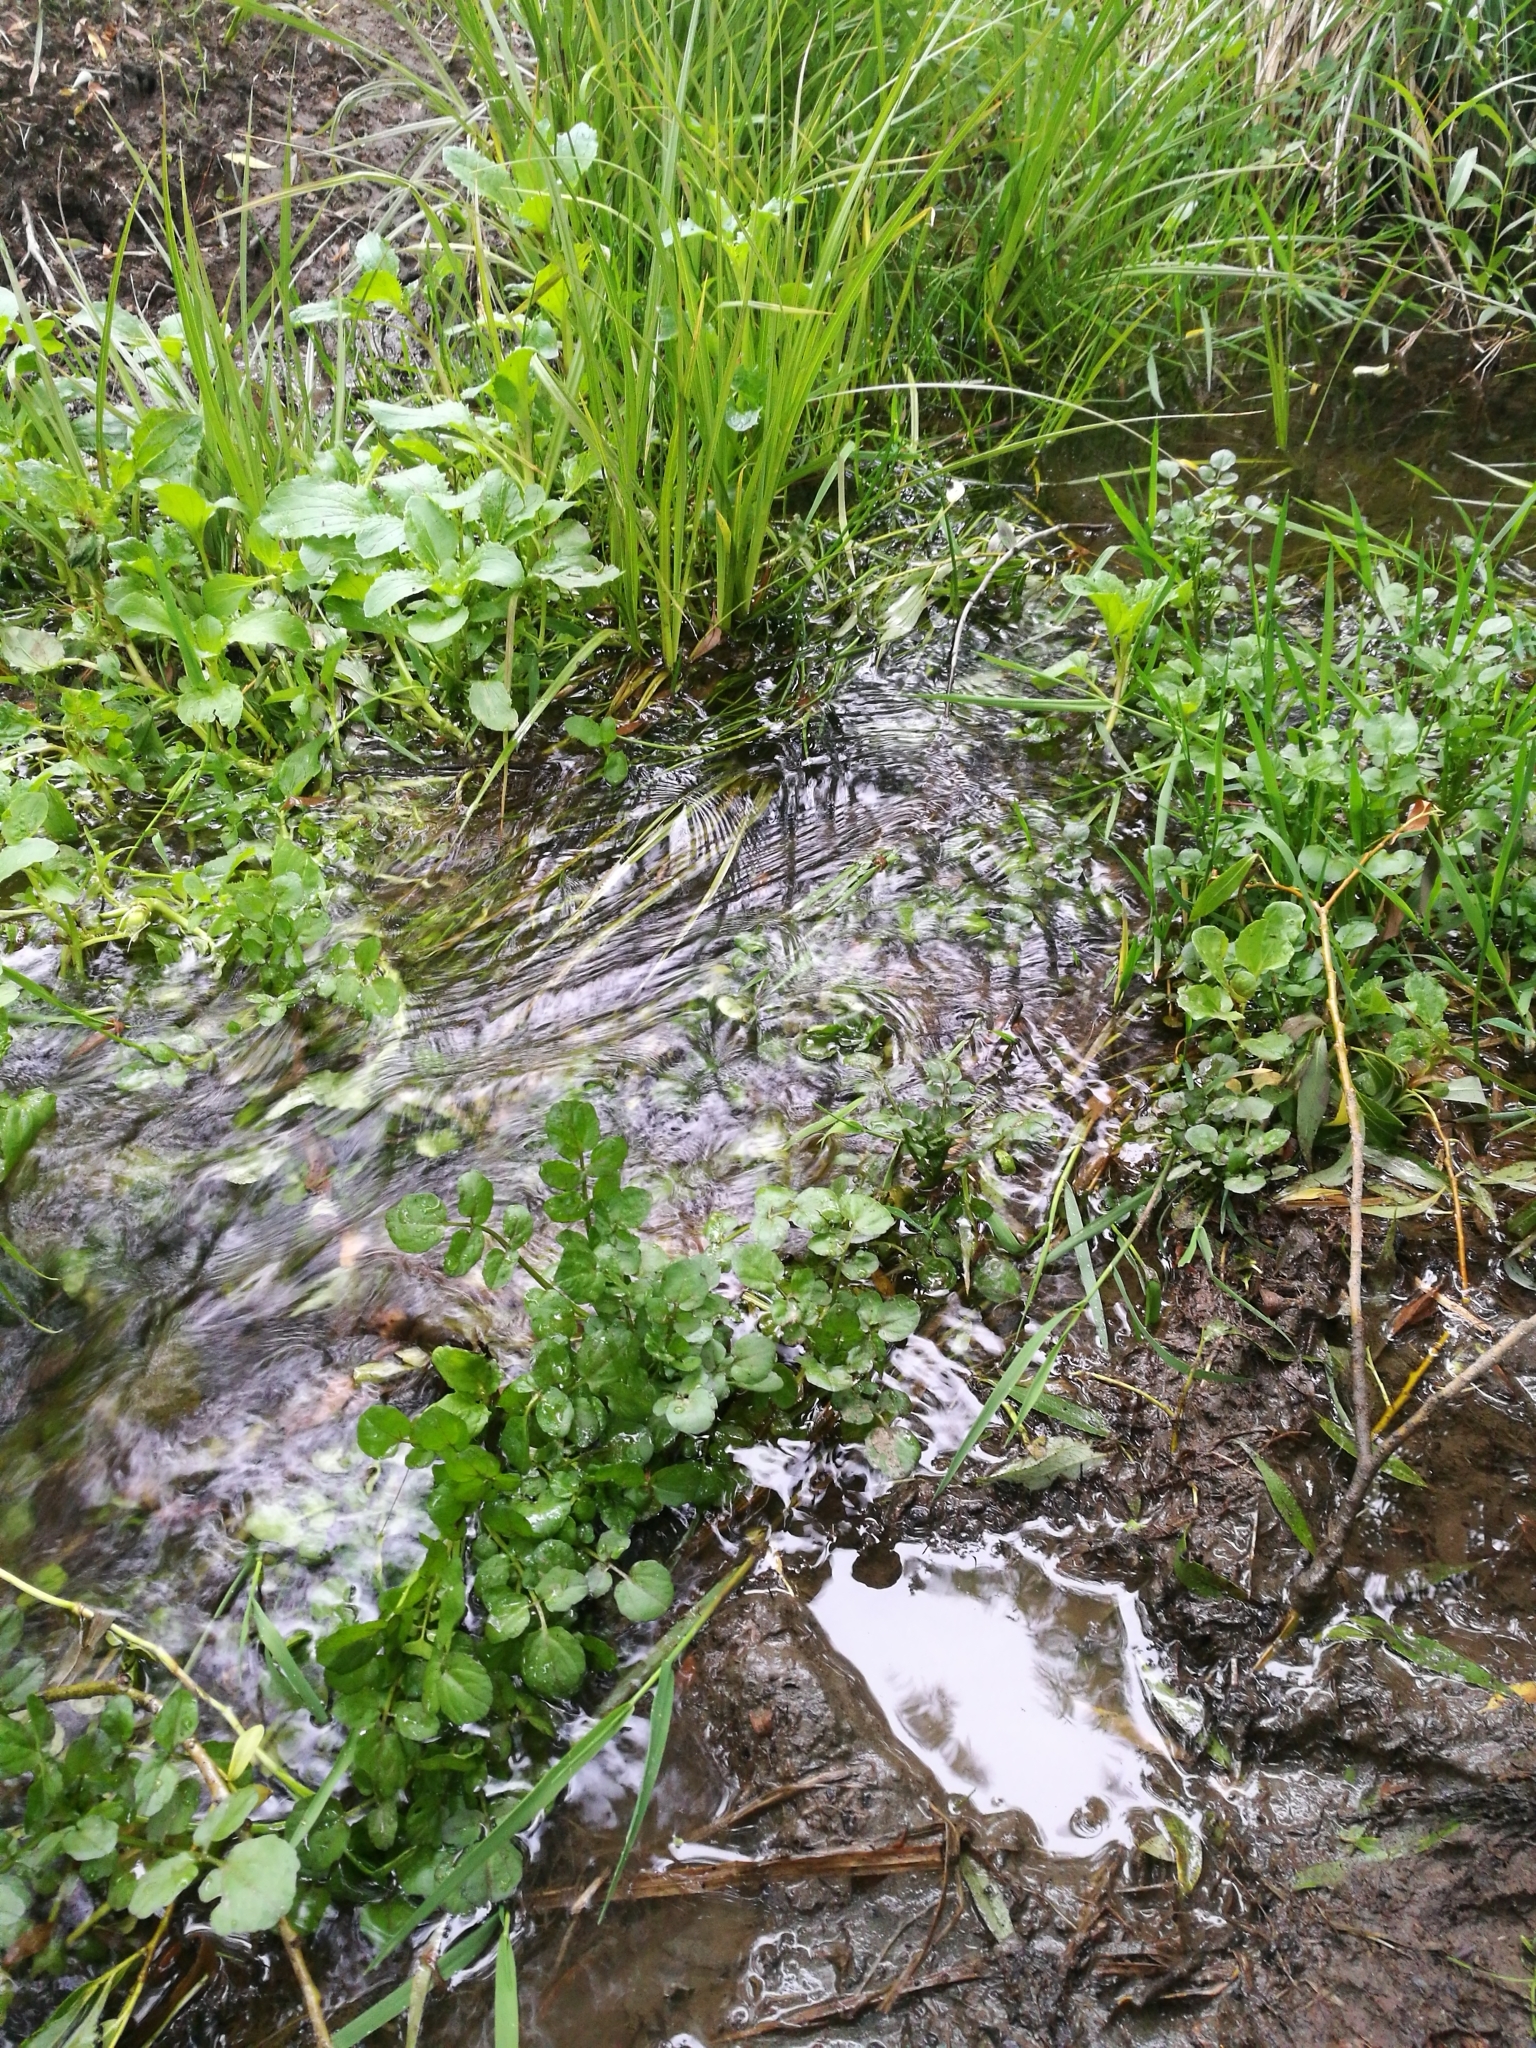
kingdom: Plantae
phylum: Tracheophyta
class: Magnoliopsida
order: Brassicales
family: Brassicaceae
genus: Nasturtium
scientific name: Nasturtium officinale
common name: Watercress
